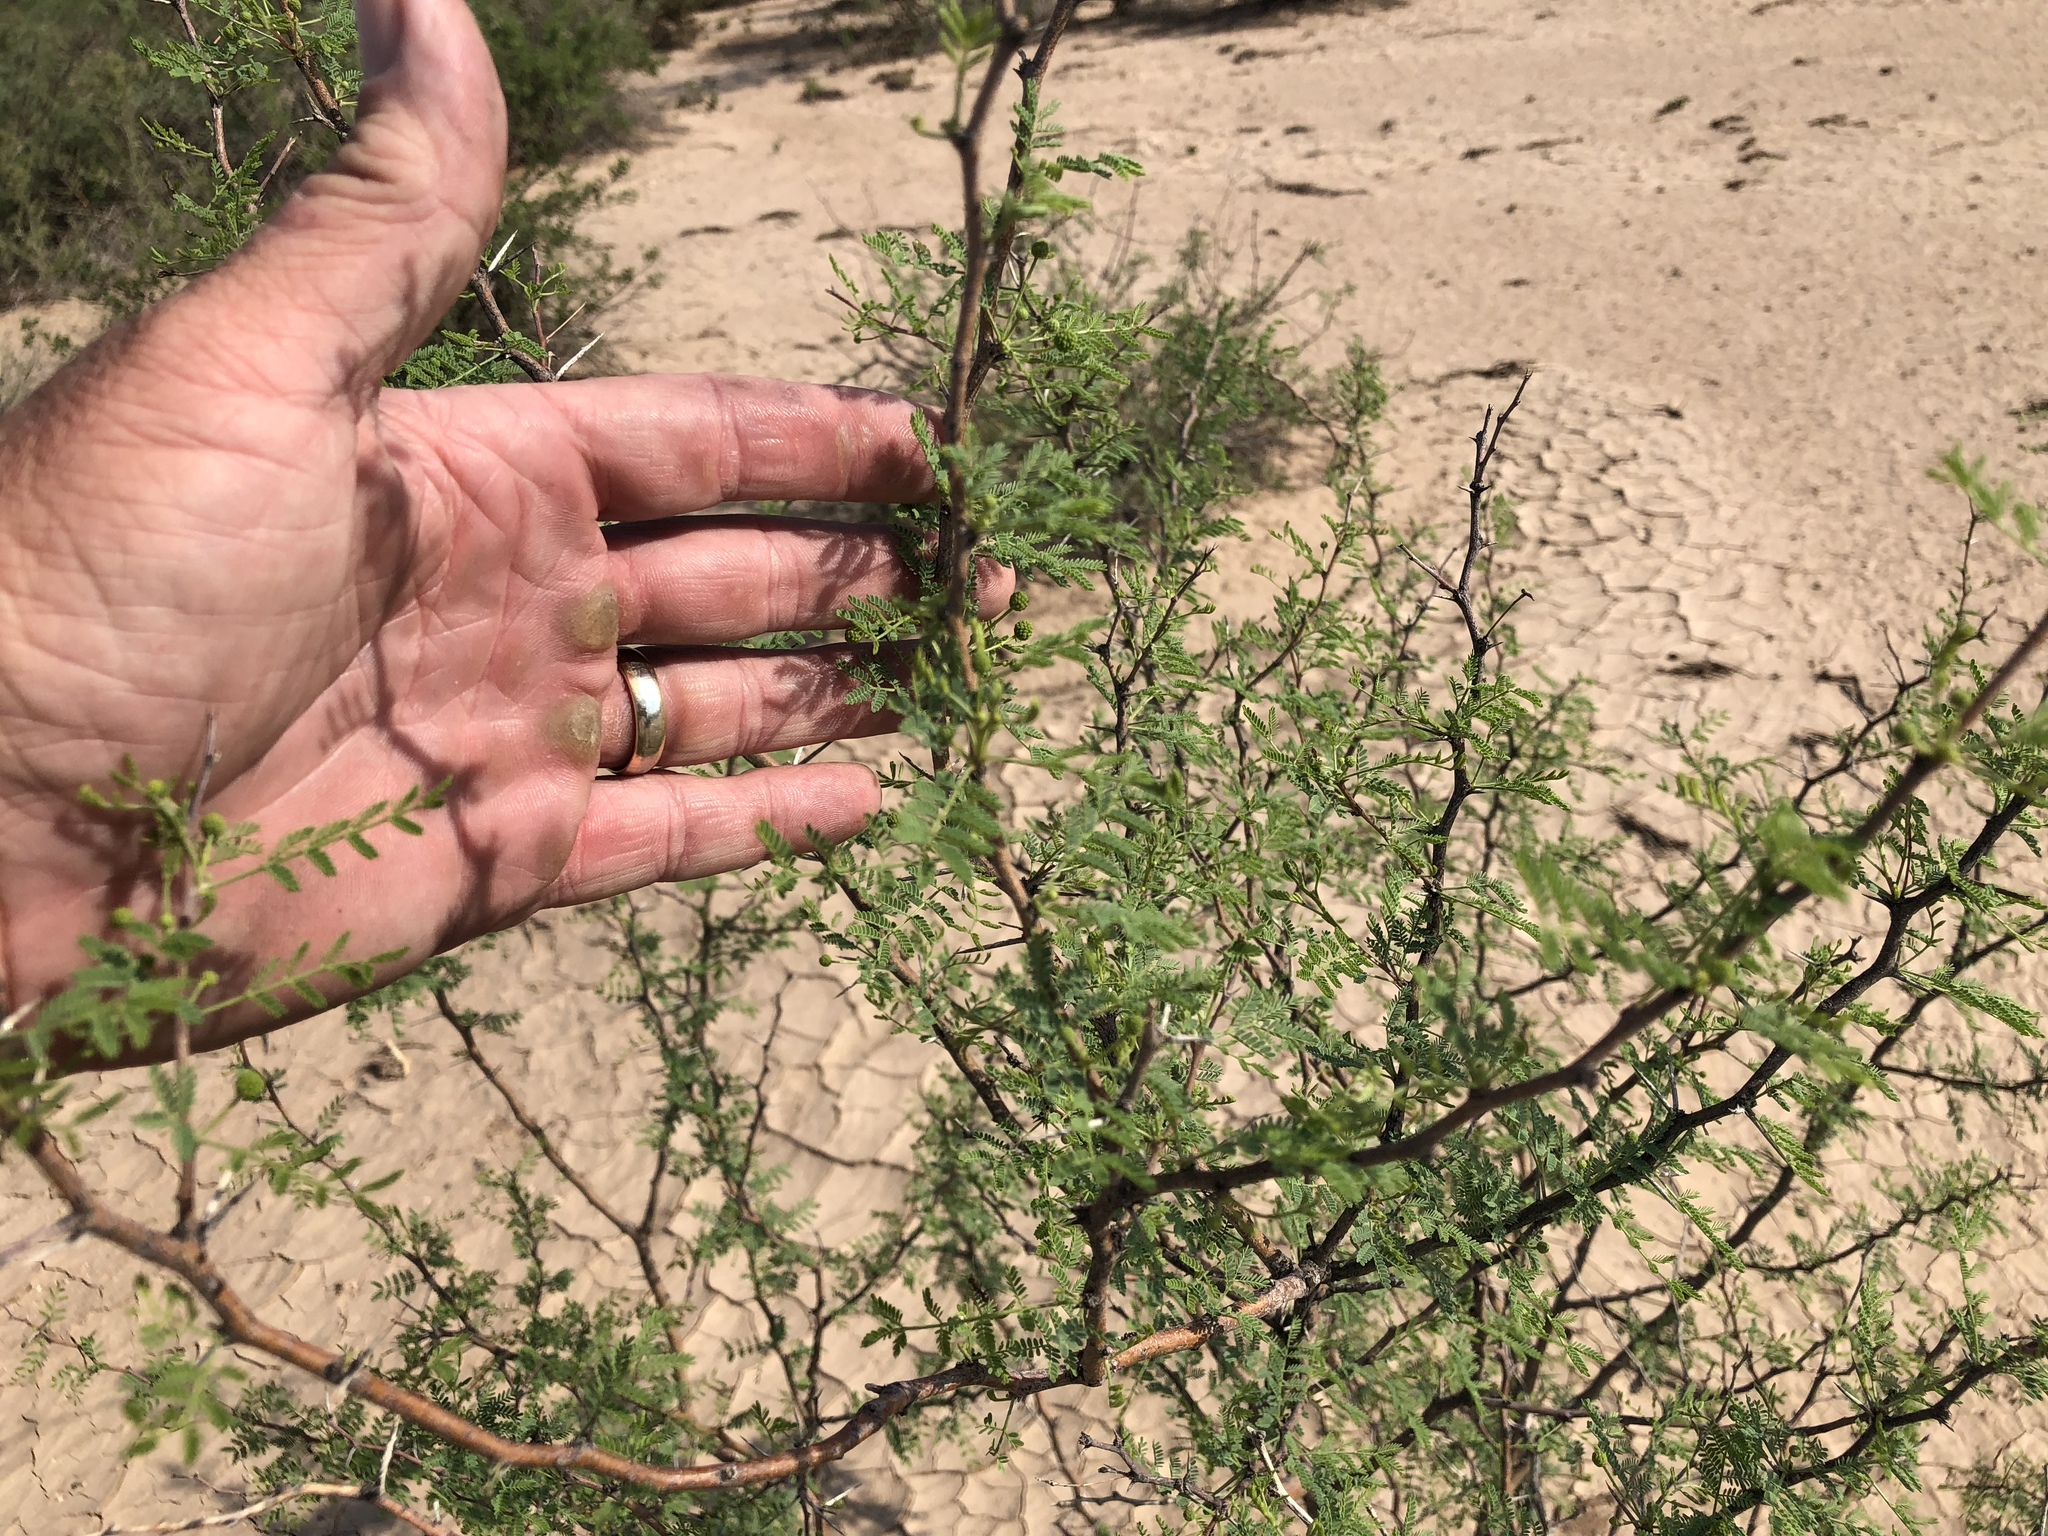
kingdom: Plantae
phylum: Tracheophyta
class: Magnoliopsida
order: Fabales
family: Fabaceae
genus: Vachellia
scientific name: Vachellia constricta
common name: Mescat acacia
